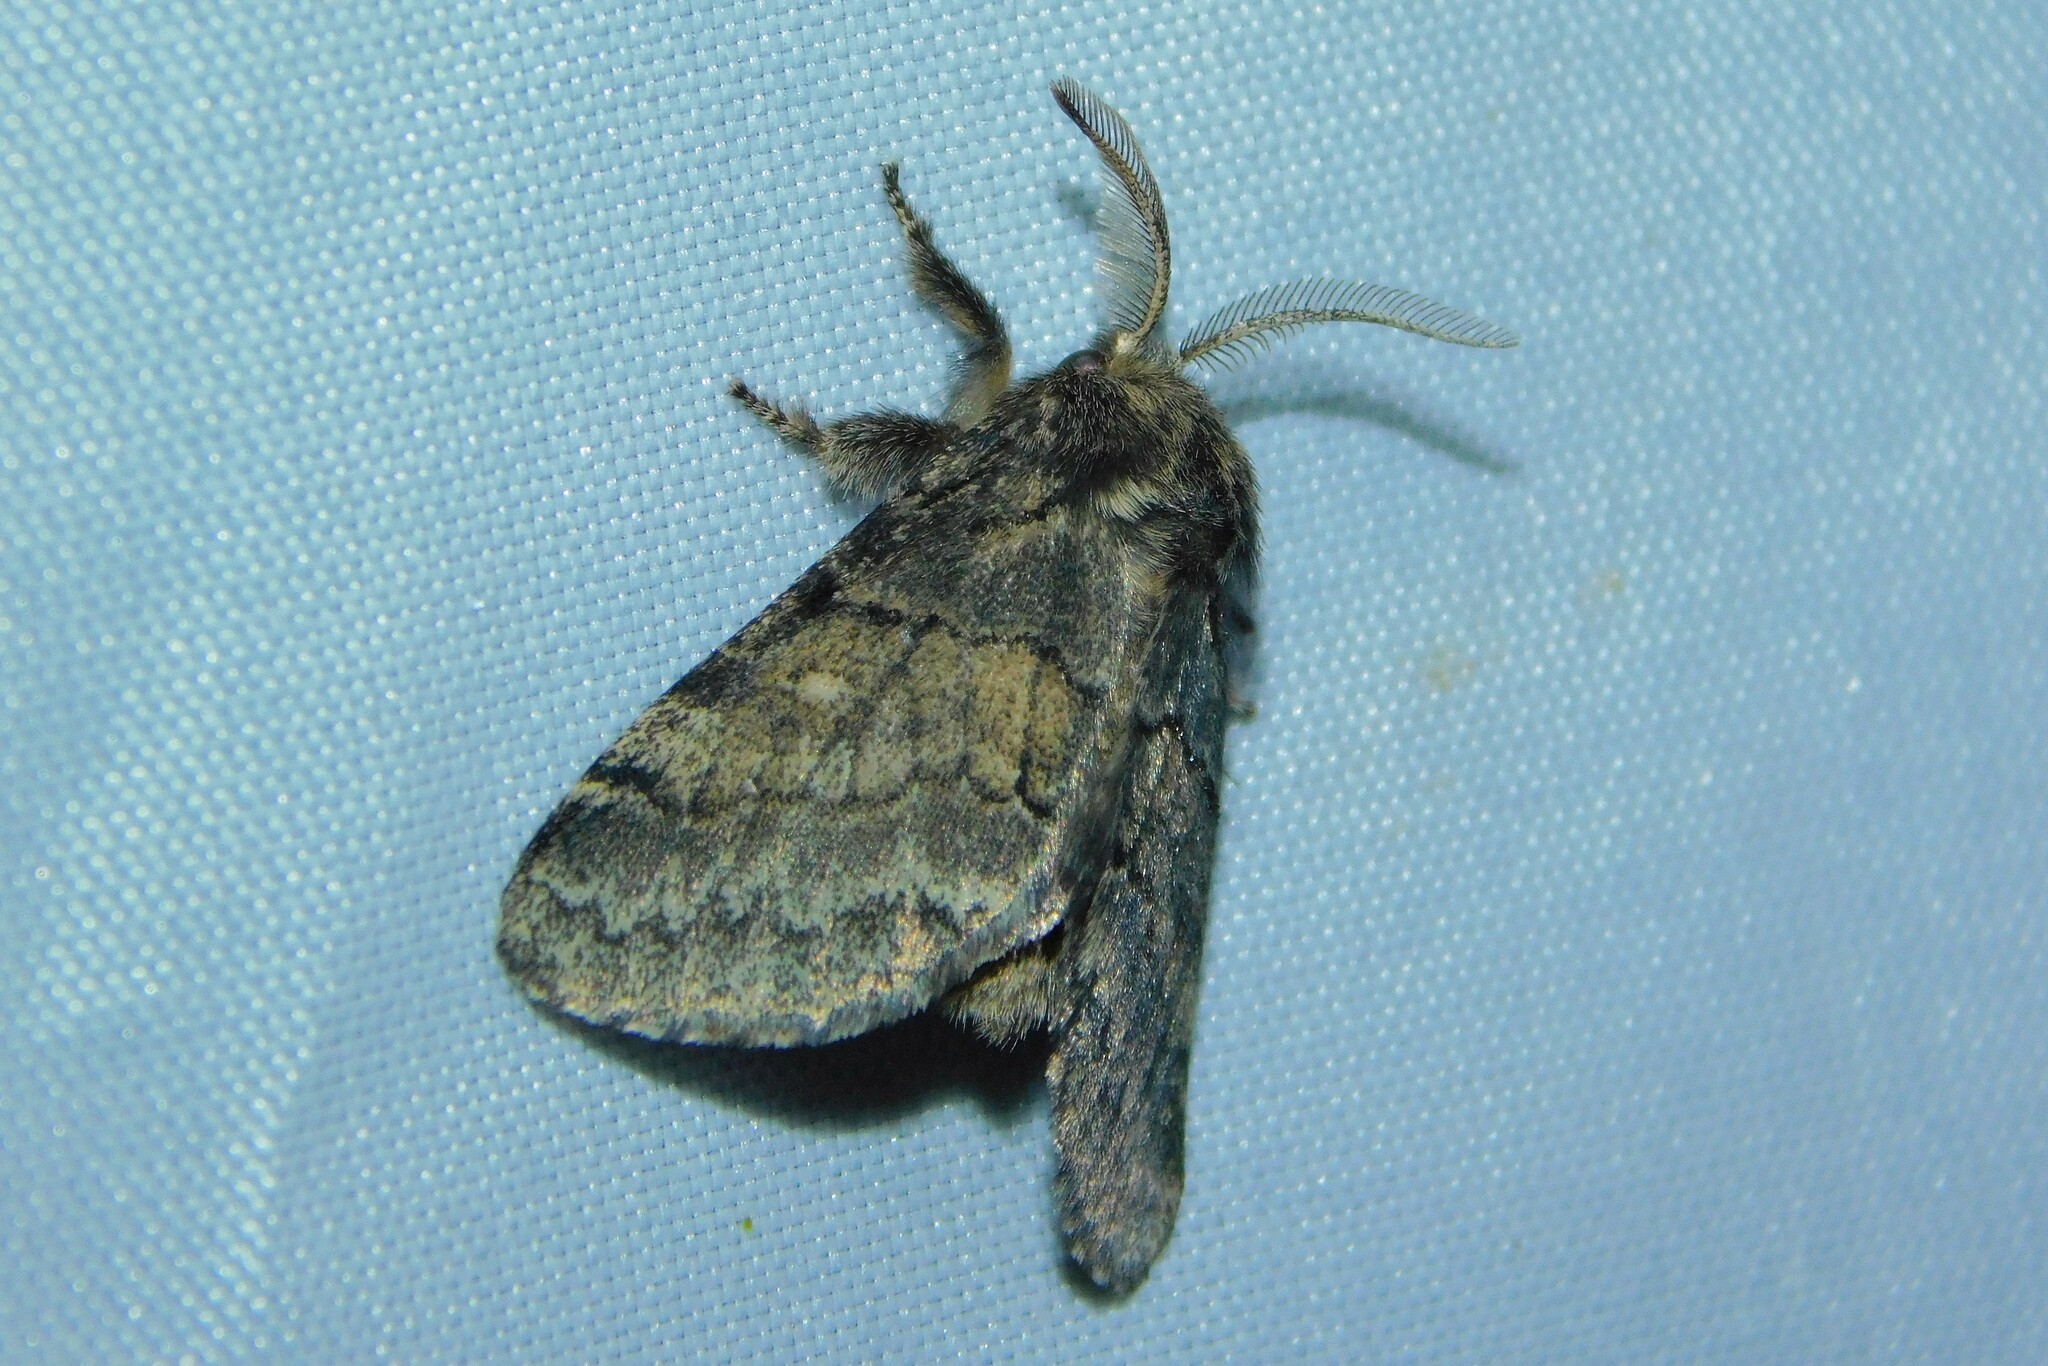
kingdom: Animalia
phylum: Arthropoda
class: Insecta
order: Lepidoptera
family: Notodontidae
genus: Gluphisia
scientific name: Gluphisia crenata
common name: Dusky marbled brown
